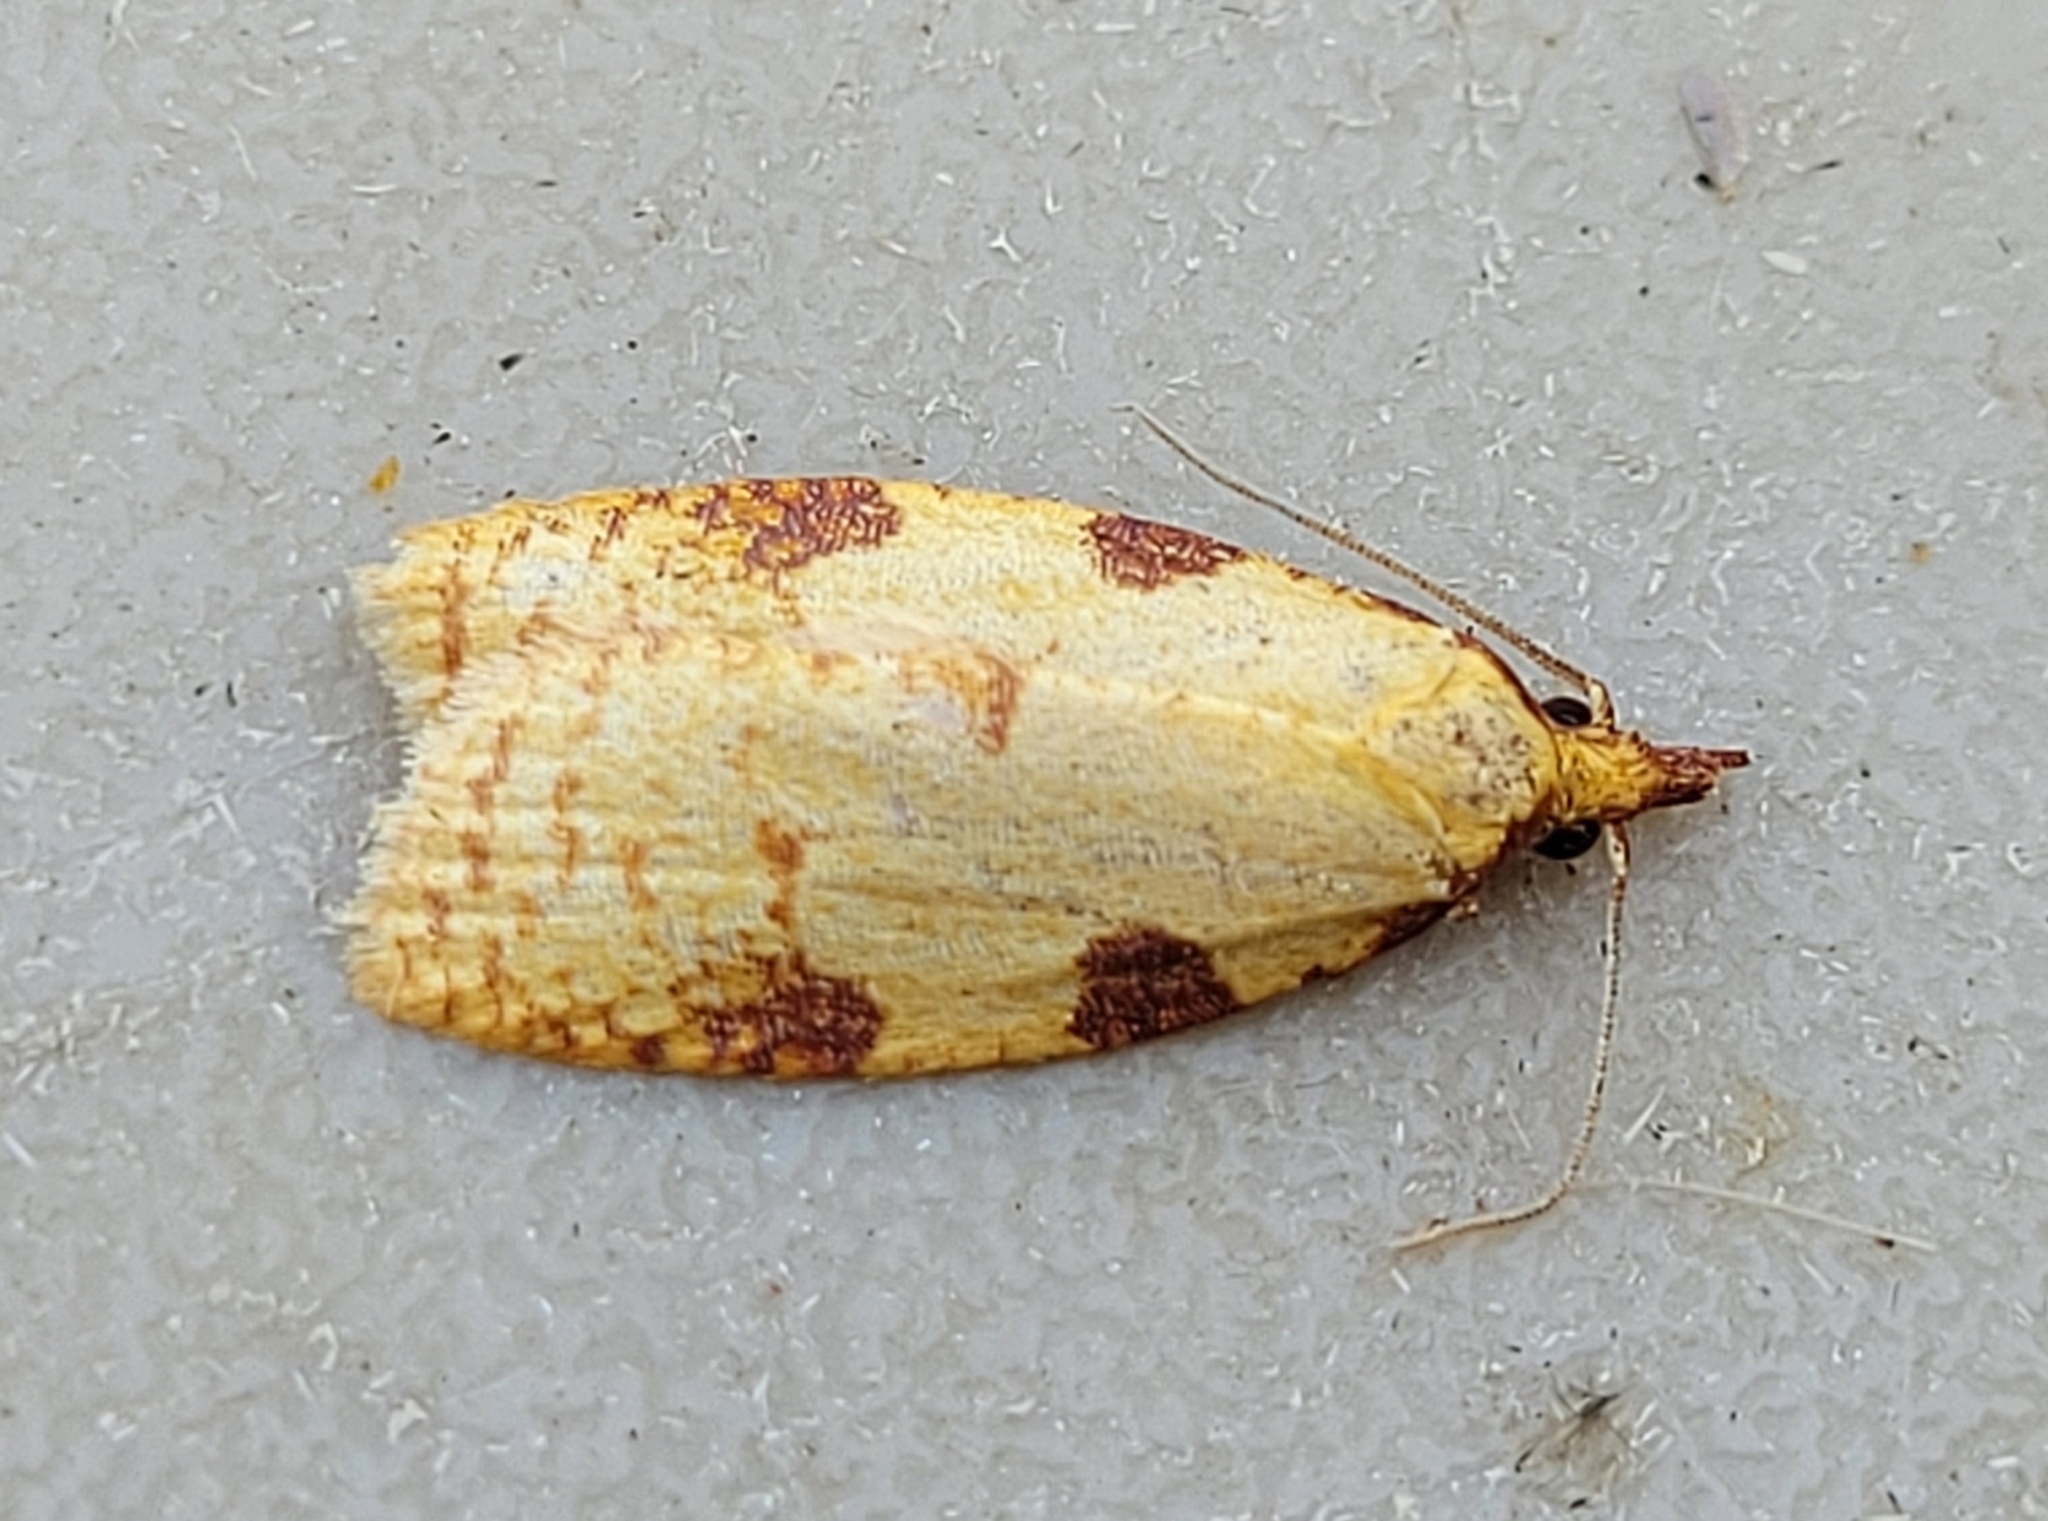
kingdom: Animalia
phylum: Arthropoda
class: Insecta
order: Lepidoptera
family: Tortricidae
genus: Cenopis
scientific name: Cenopis directana
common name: Chokecherry leafroller moth
